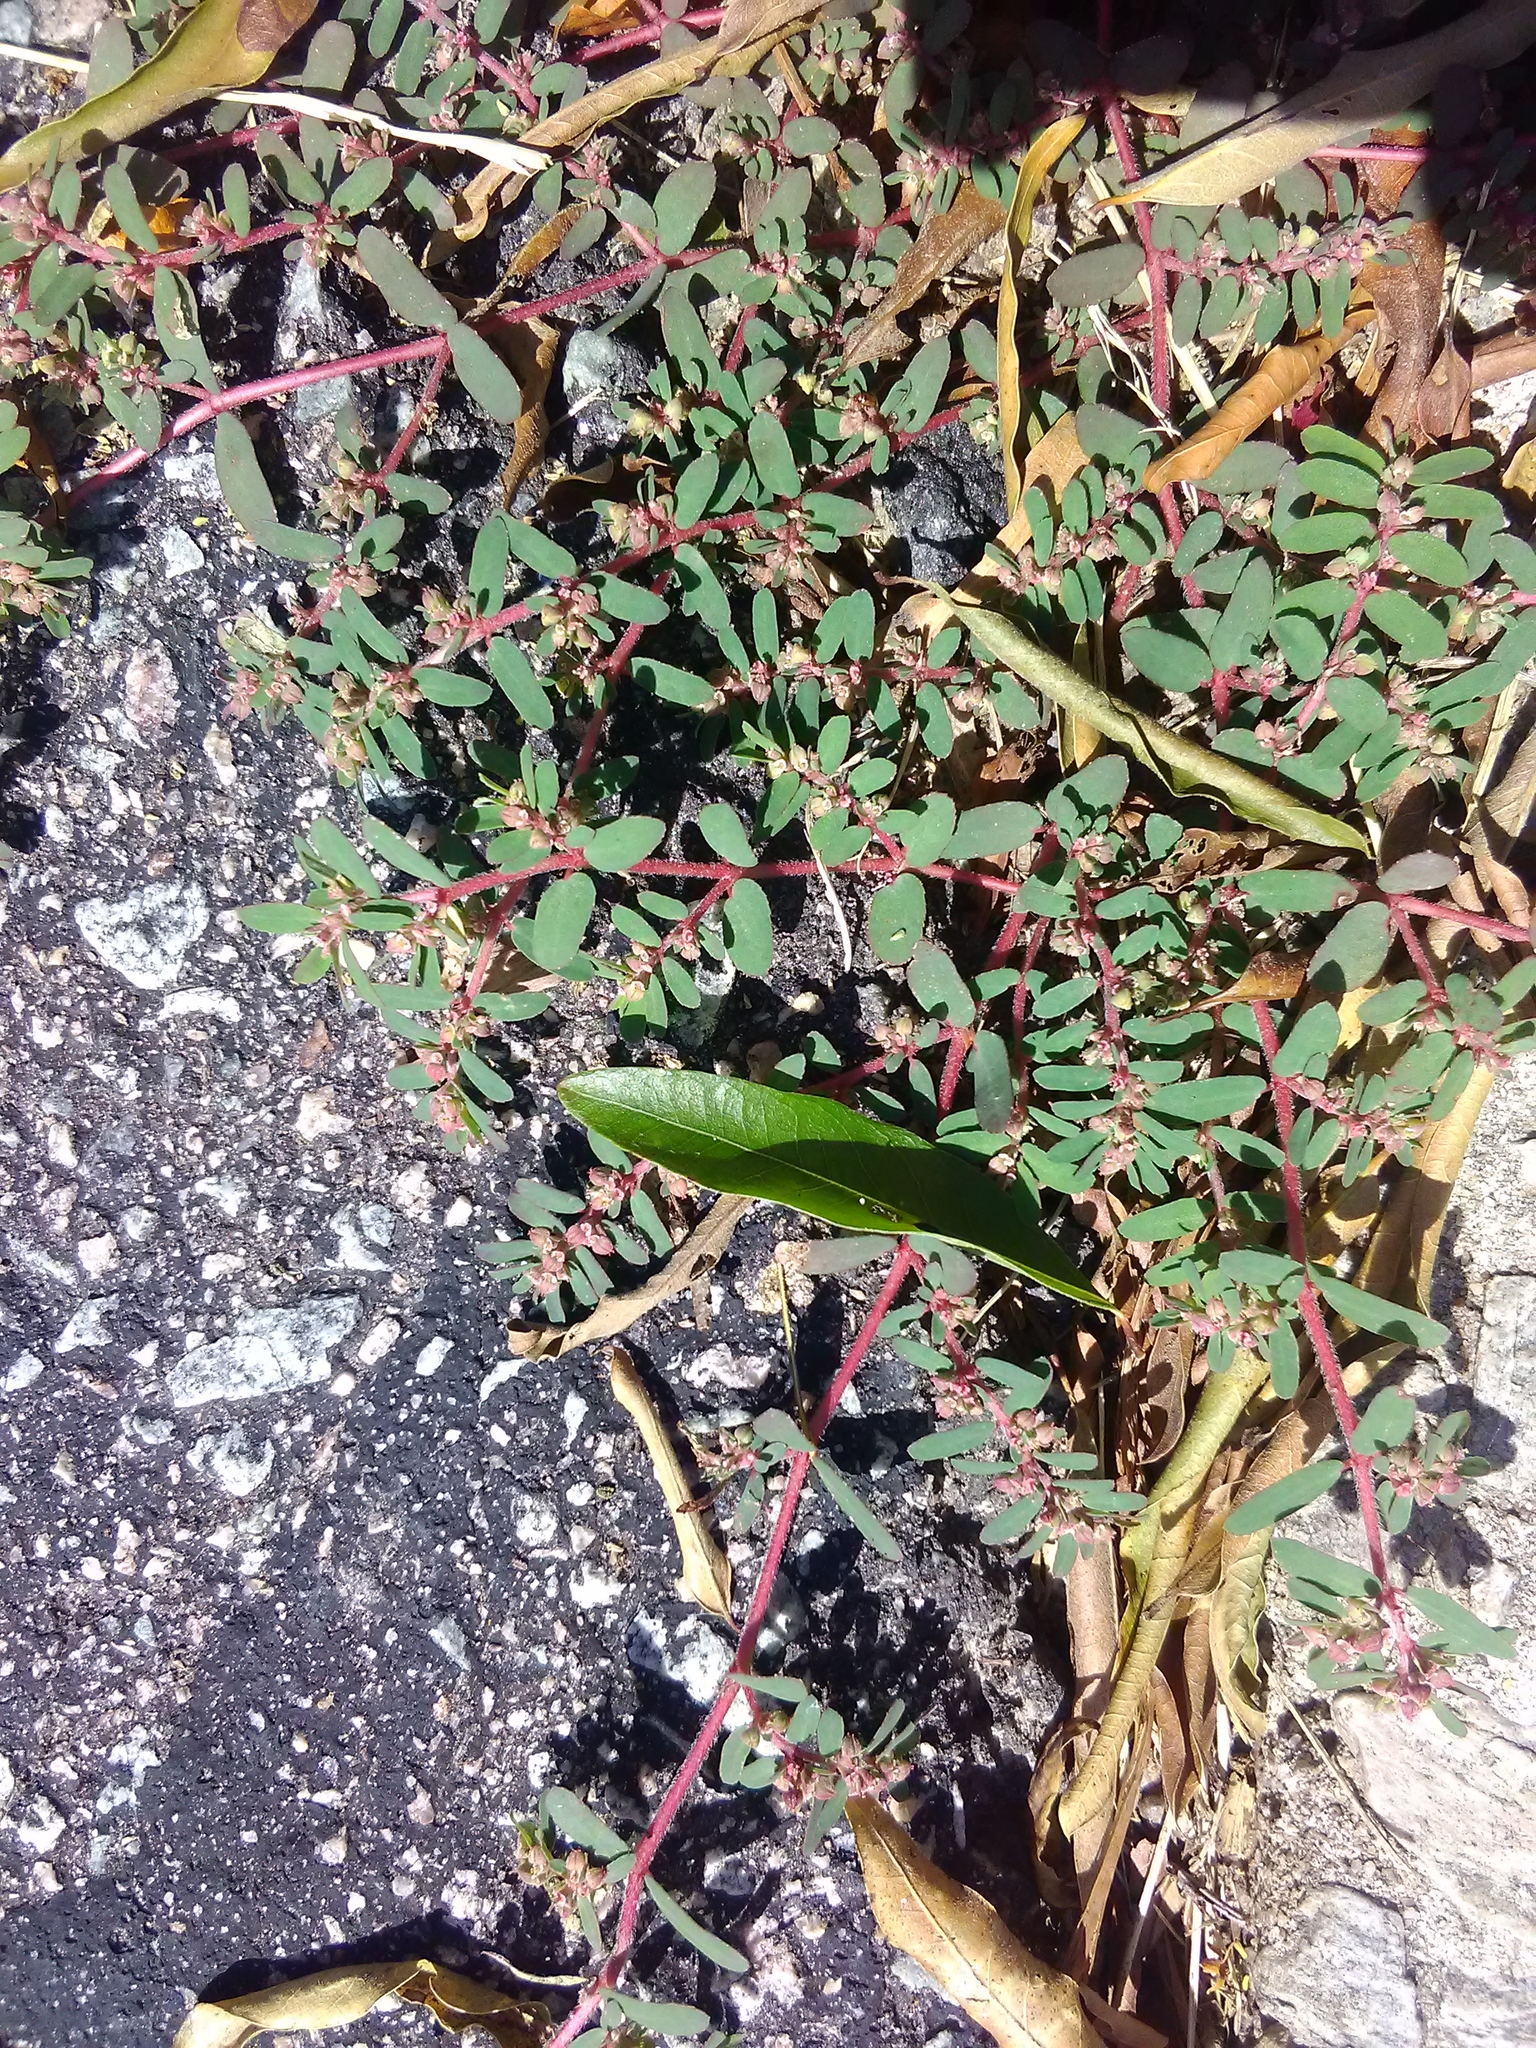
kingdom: Plantae
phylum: Tracheophyta
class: Magnoliopsida
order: Malpighiales
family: Euphorbiaceae
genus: Euphorbia
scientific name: Euphorbia maculata
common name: Spotted spurge
